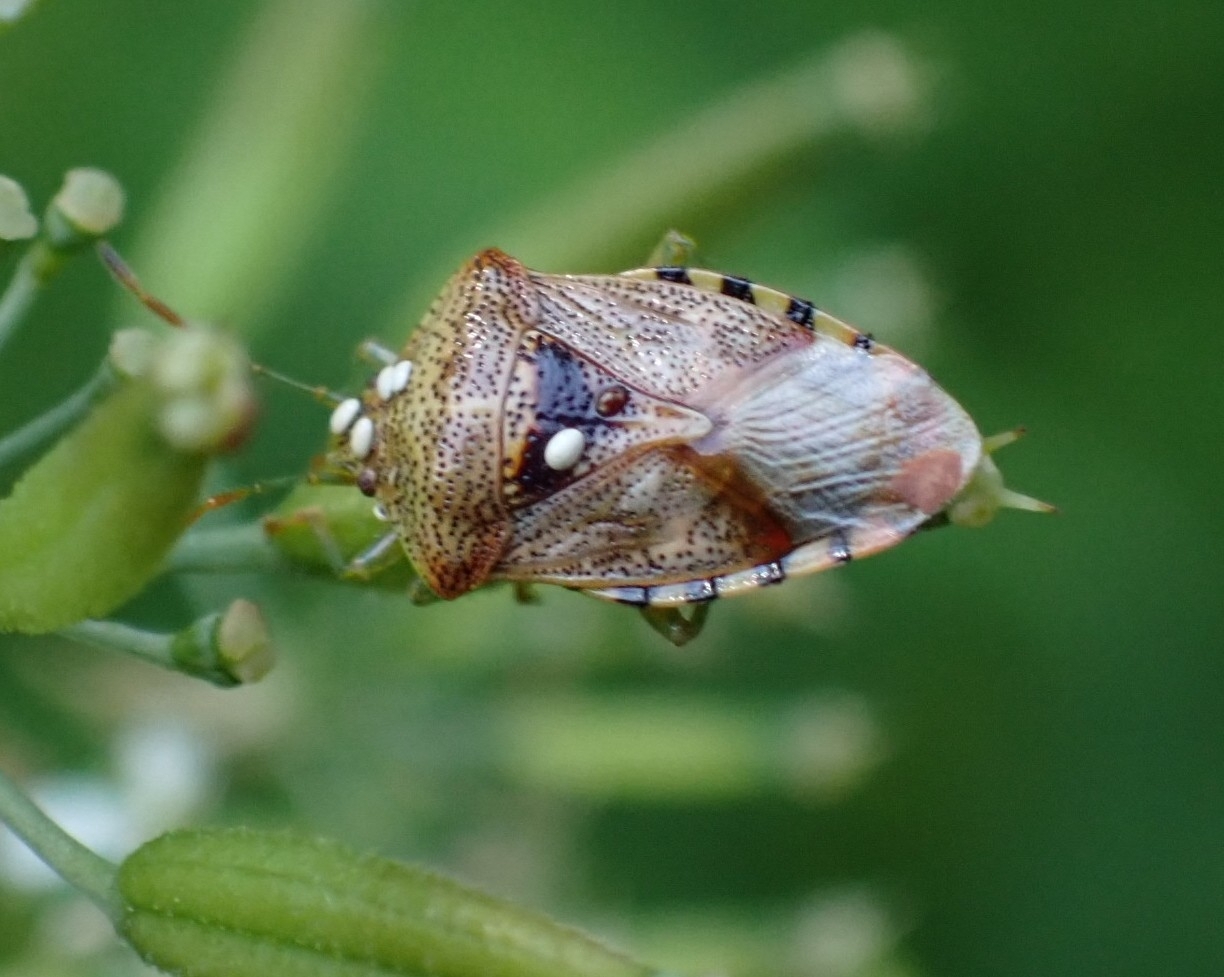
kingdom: Animalia
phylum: Arthropoda
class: Insecta
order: Hemiptera
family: Acanthosomatidae
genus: Elasmucha
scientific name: Elasmucha grisea
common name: Parent bug
